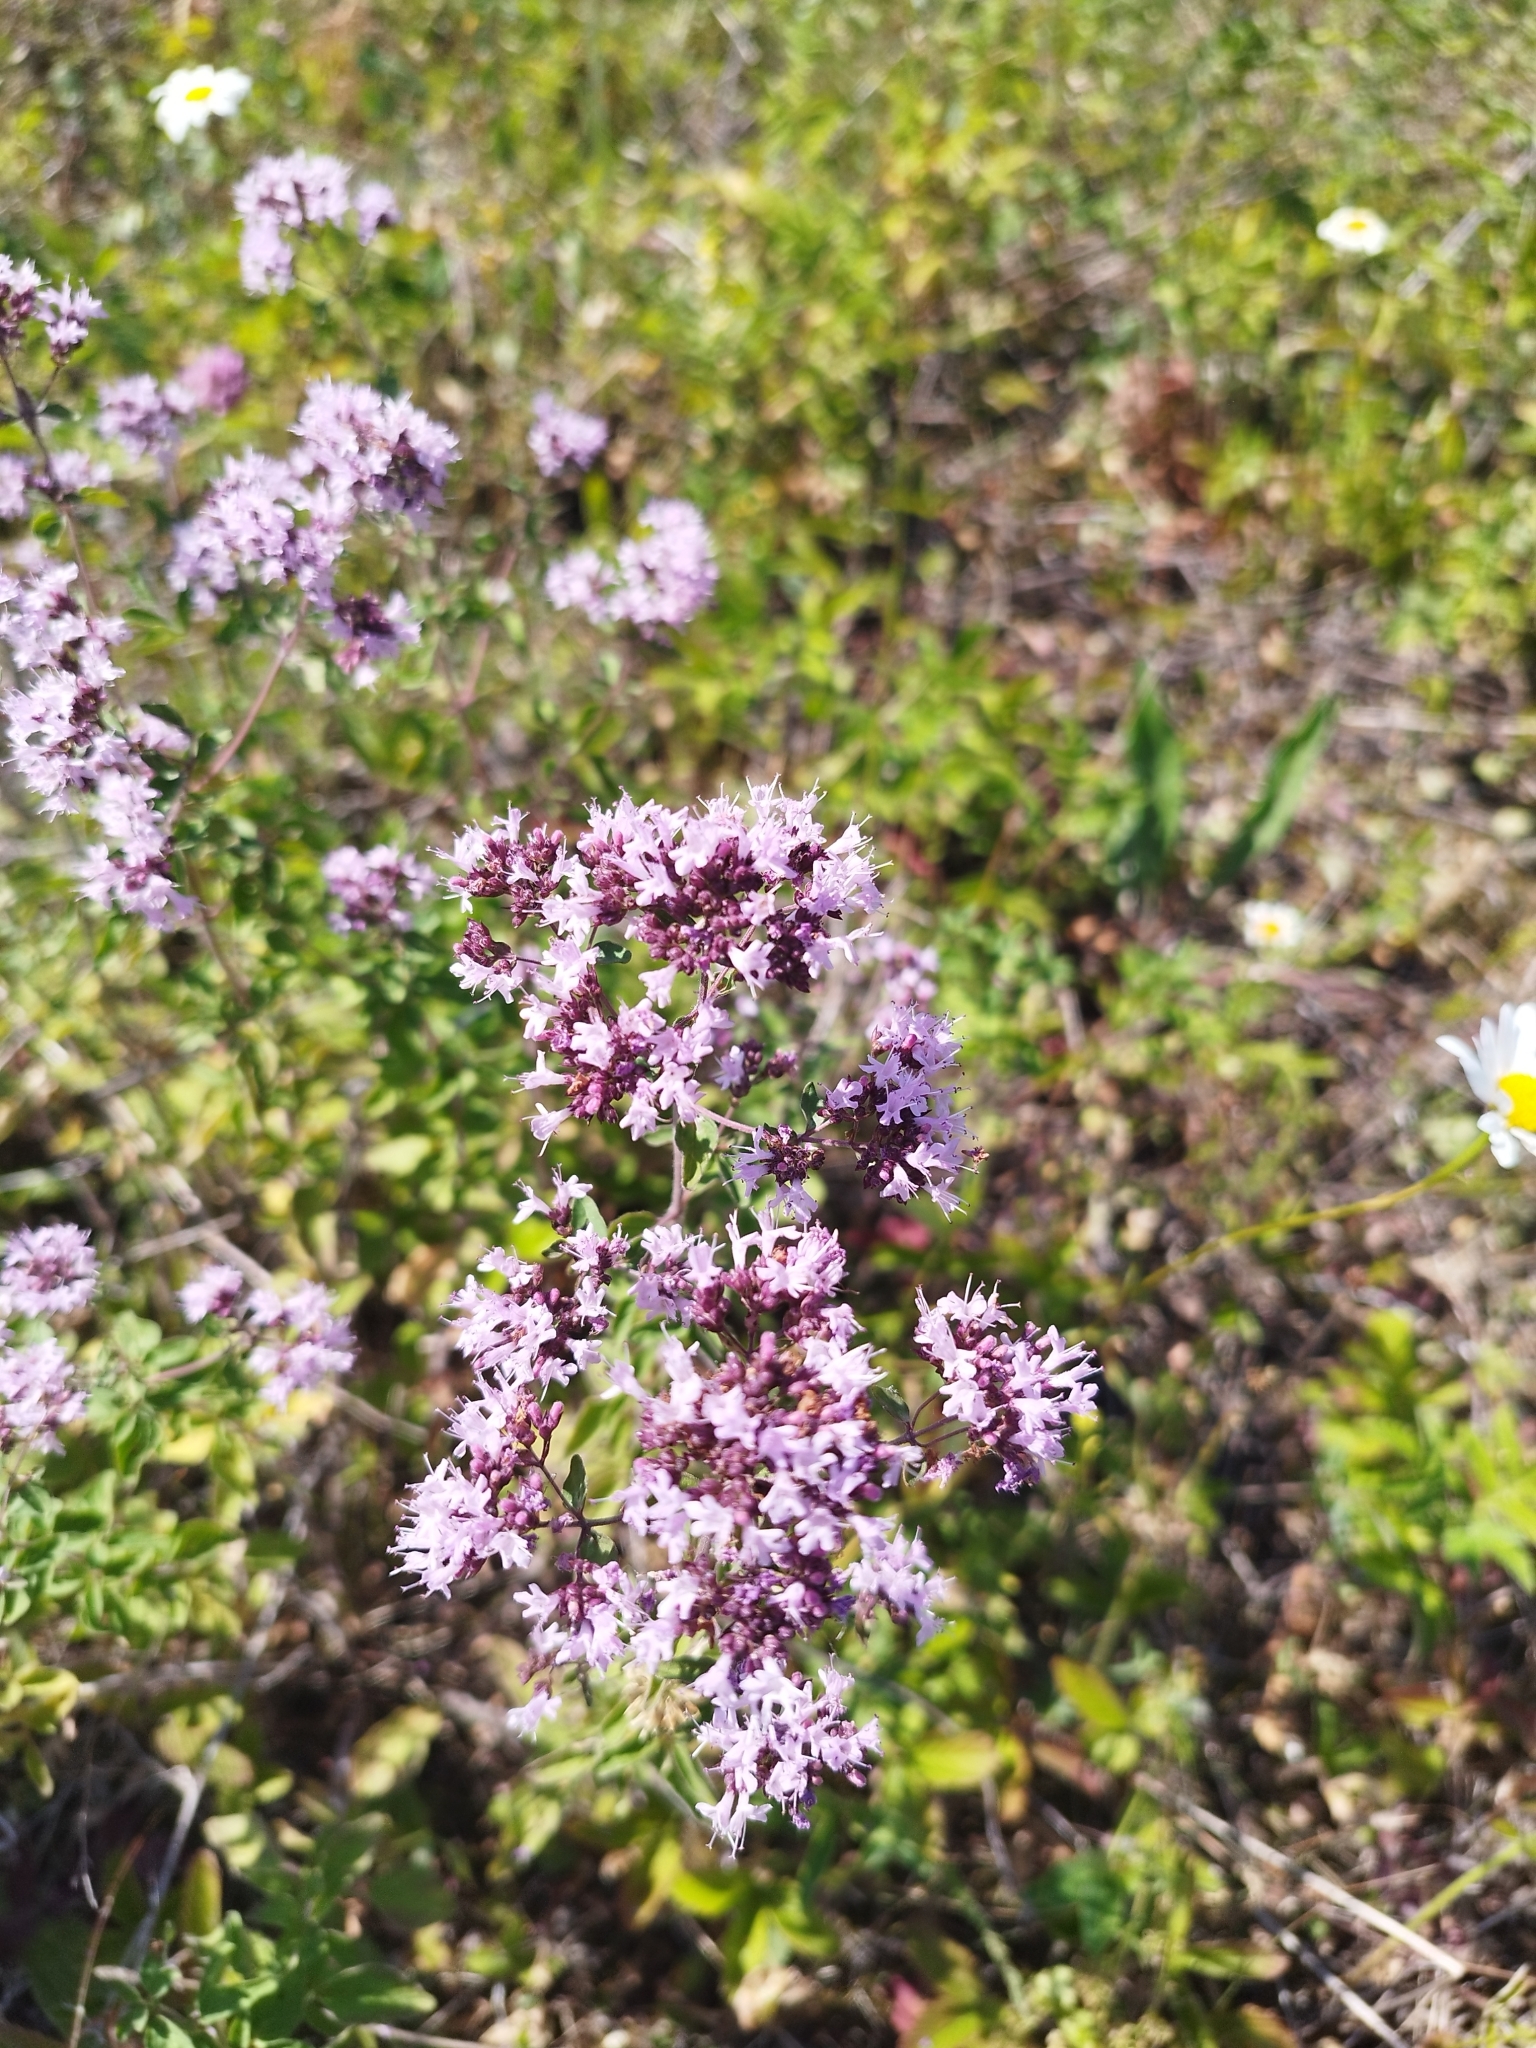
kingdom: Plantae
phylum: Tracheophyta
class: Magnoliopsida
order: Lamiales
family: Lamiaceae
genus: Origanum
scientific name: Origanum vulgare
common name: Wild marjoram
